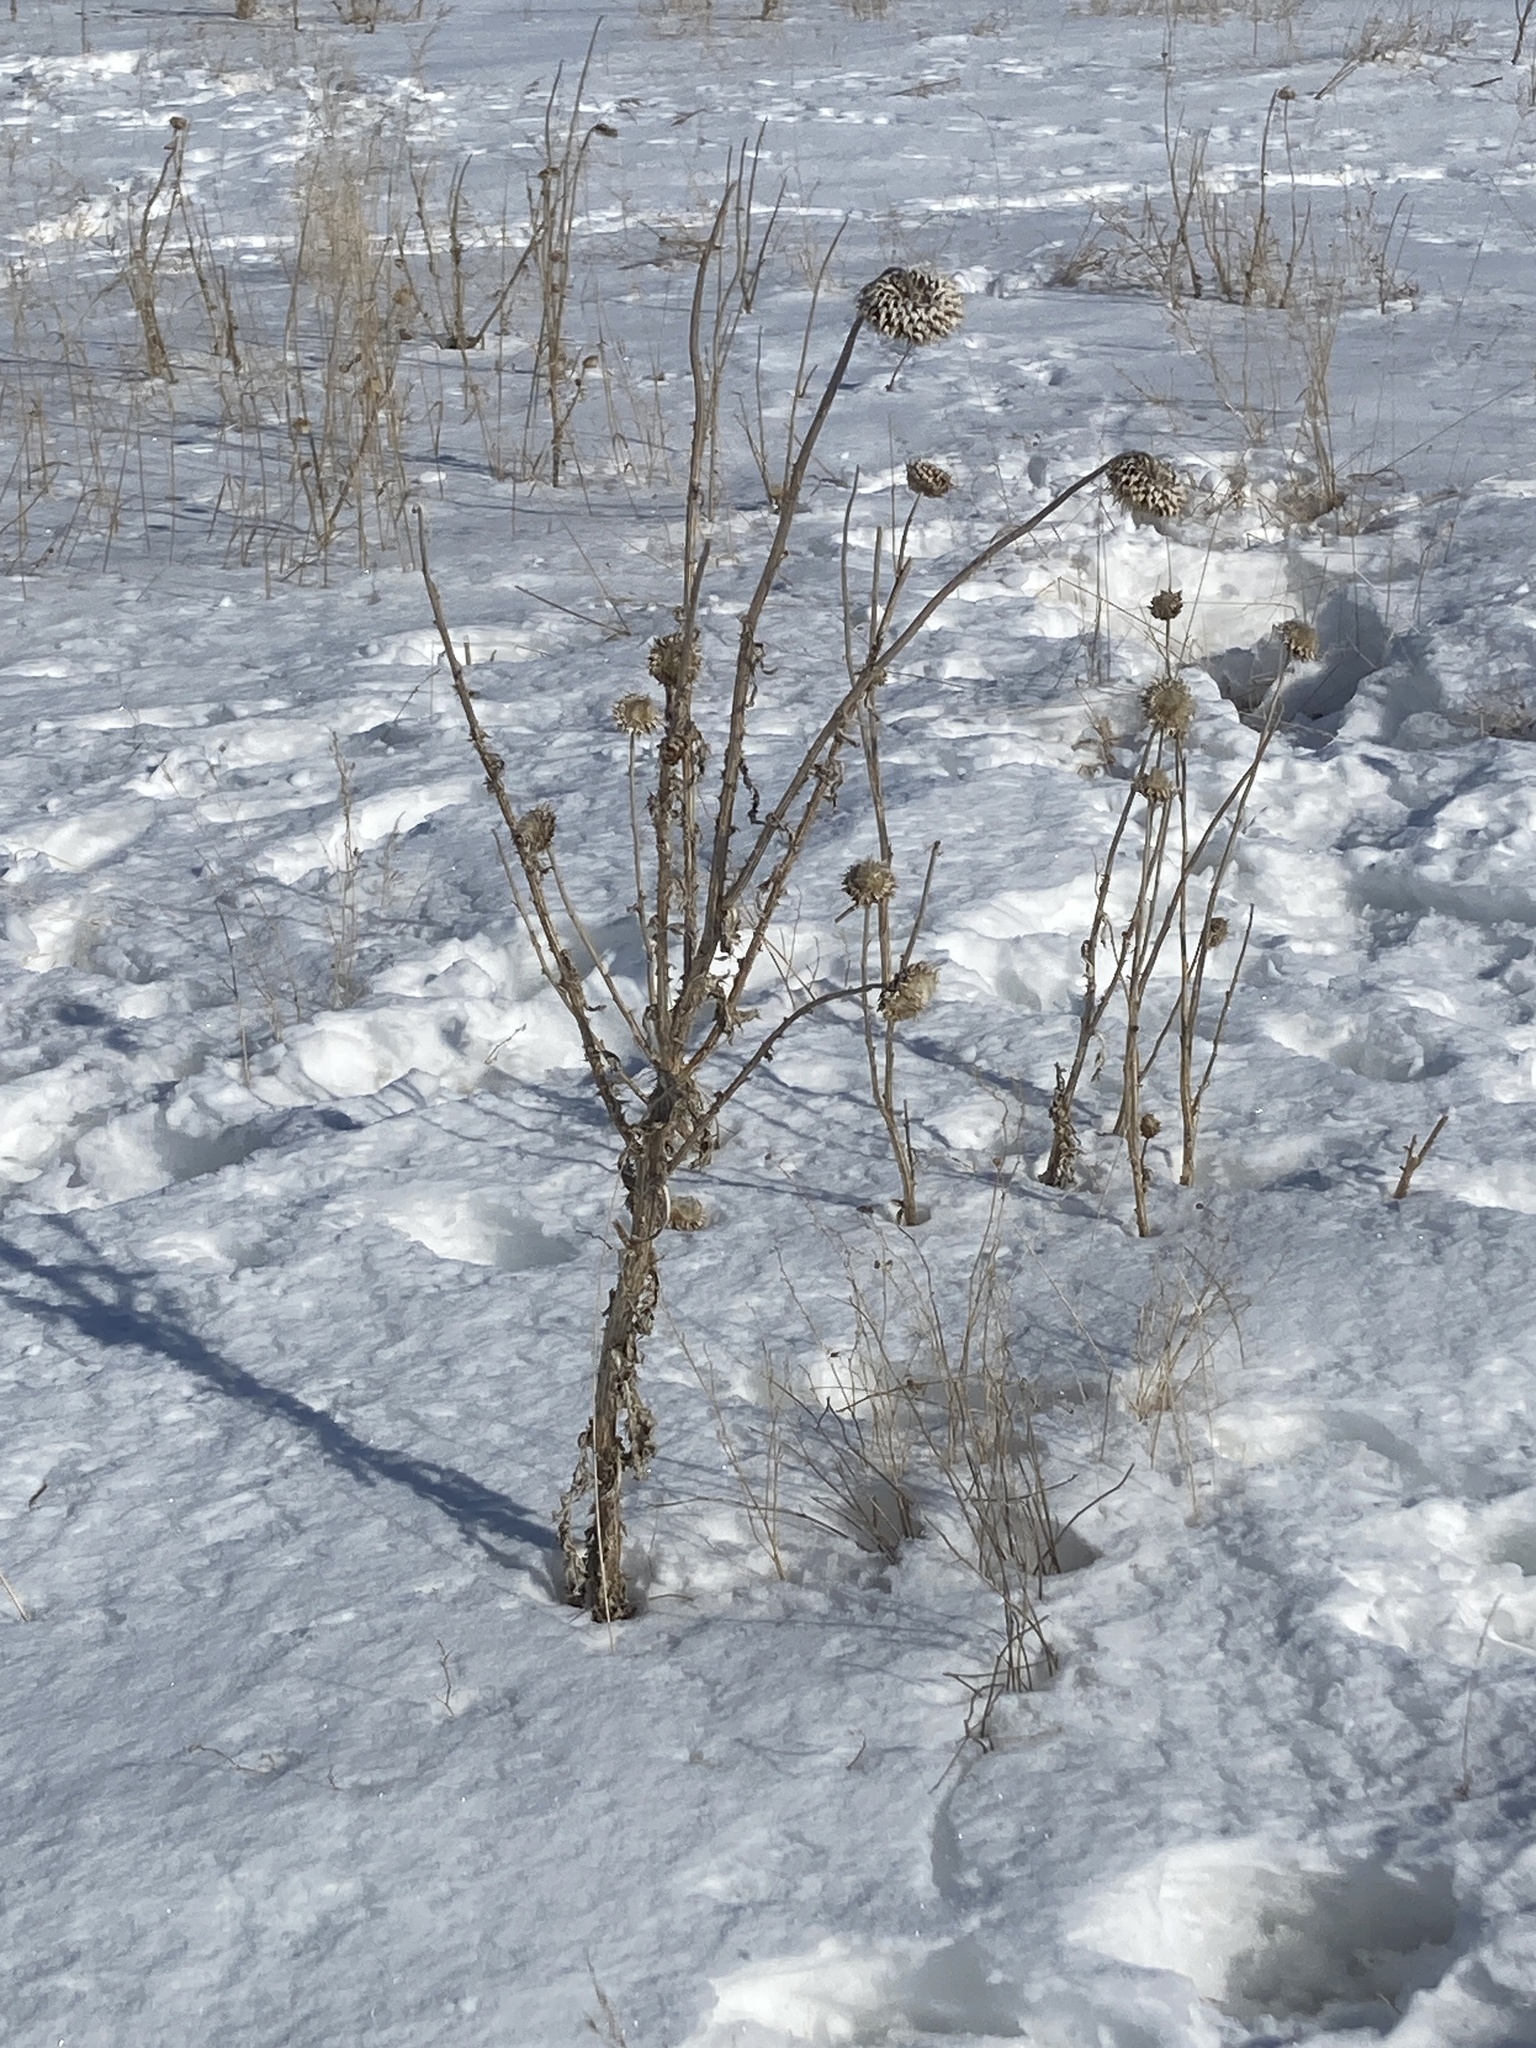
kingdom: Plantae
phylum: Tracheophyta
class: Magnoliopsida
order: Asterales
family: Asteraceae
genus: Carduus
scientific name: Carduus nutans
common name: Musk thistle
